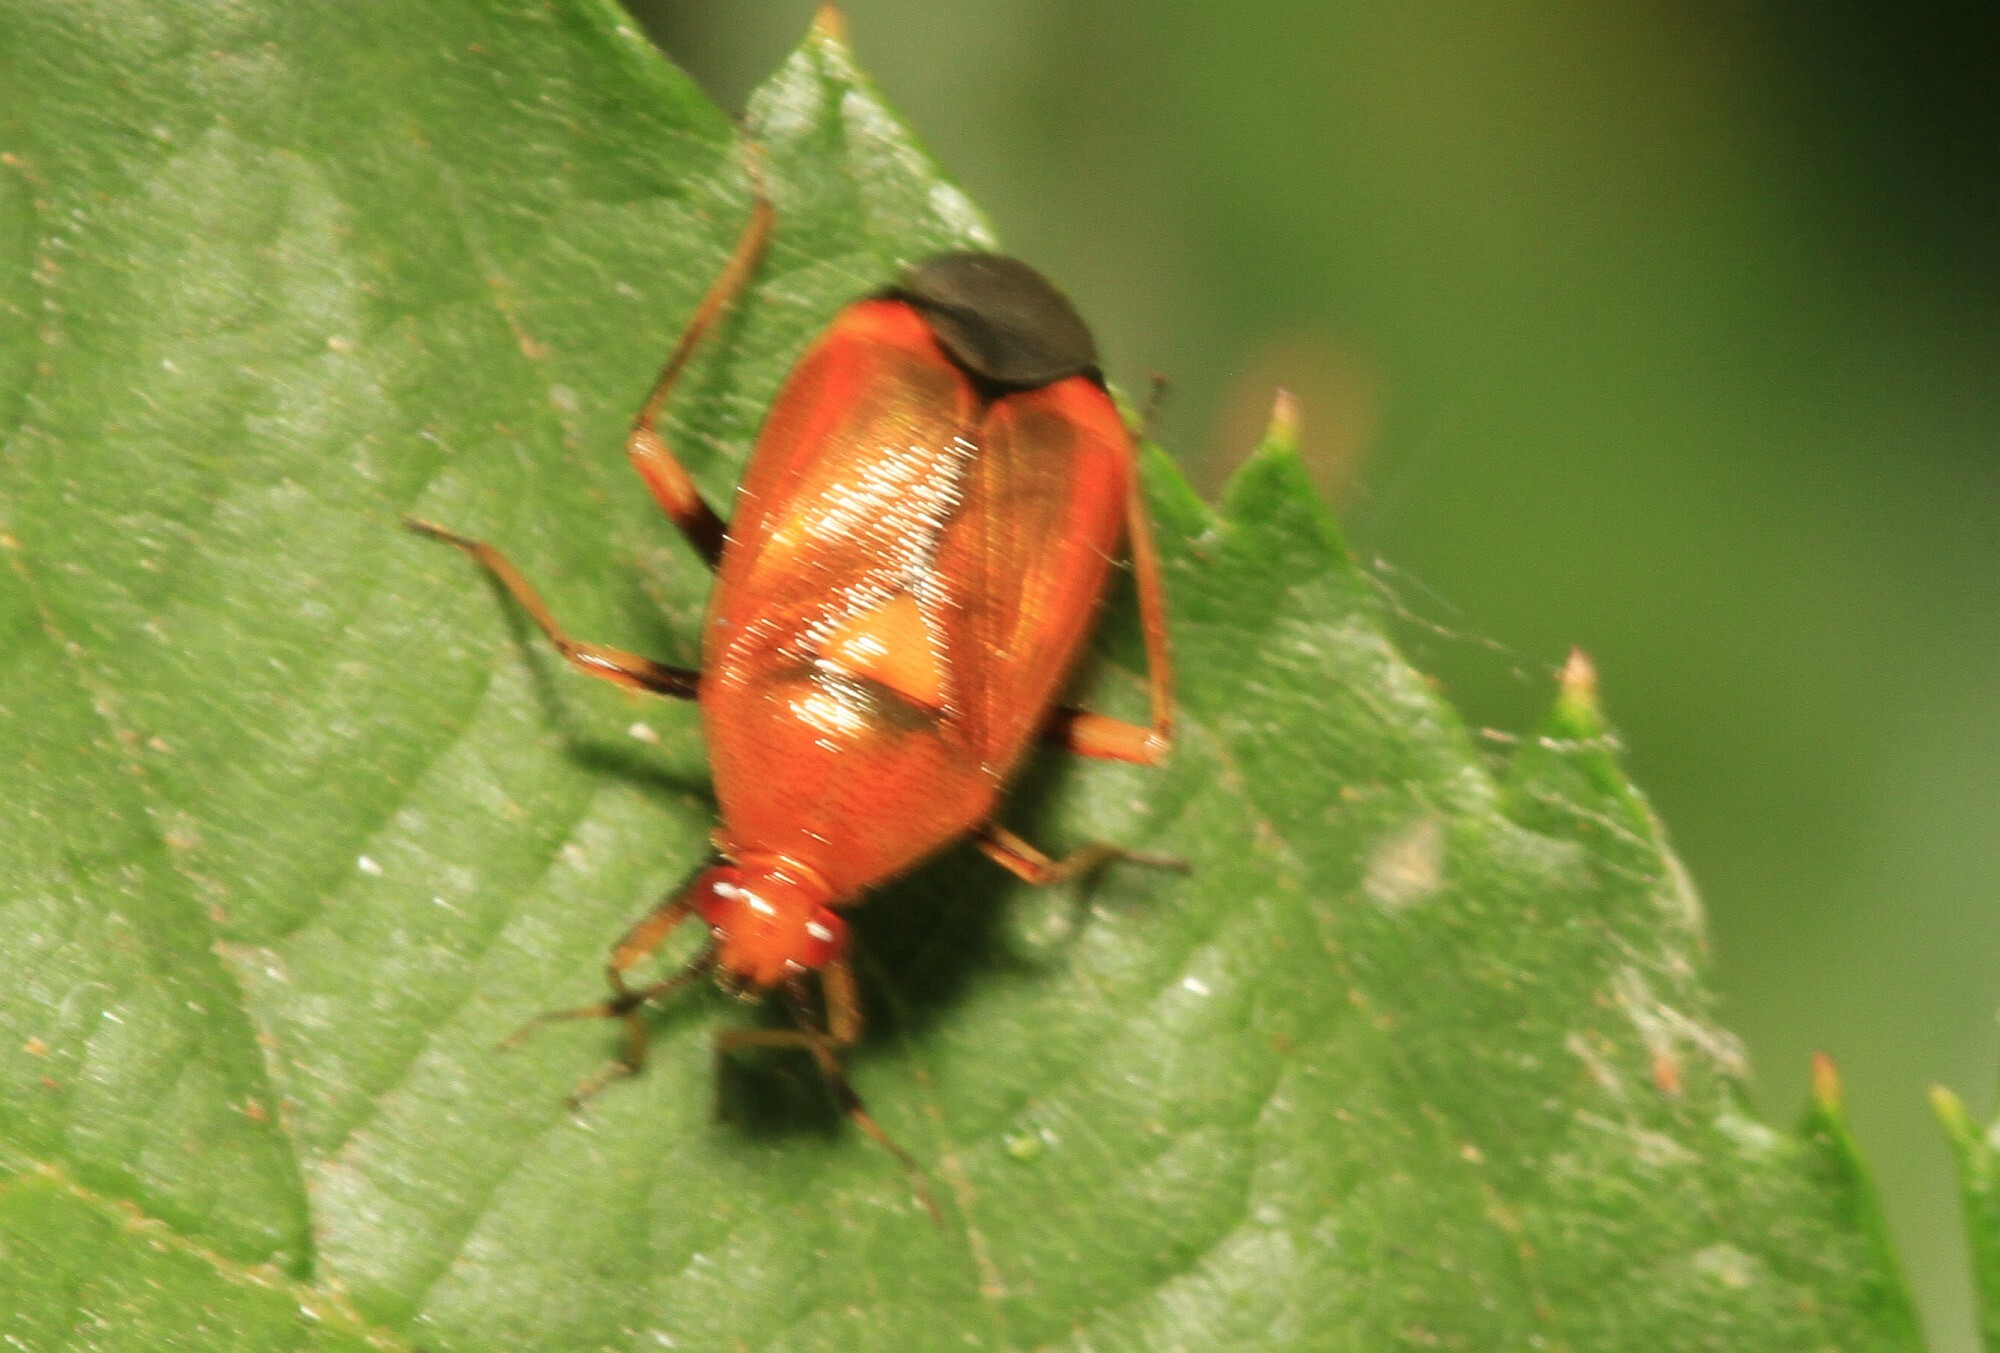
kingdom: Animalia
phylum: Arthropoda
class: Insecta
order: Hemiptera
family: Miridae
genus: Deraeocoris
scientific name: Deraeocoris ruber
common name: Plant bug
